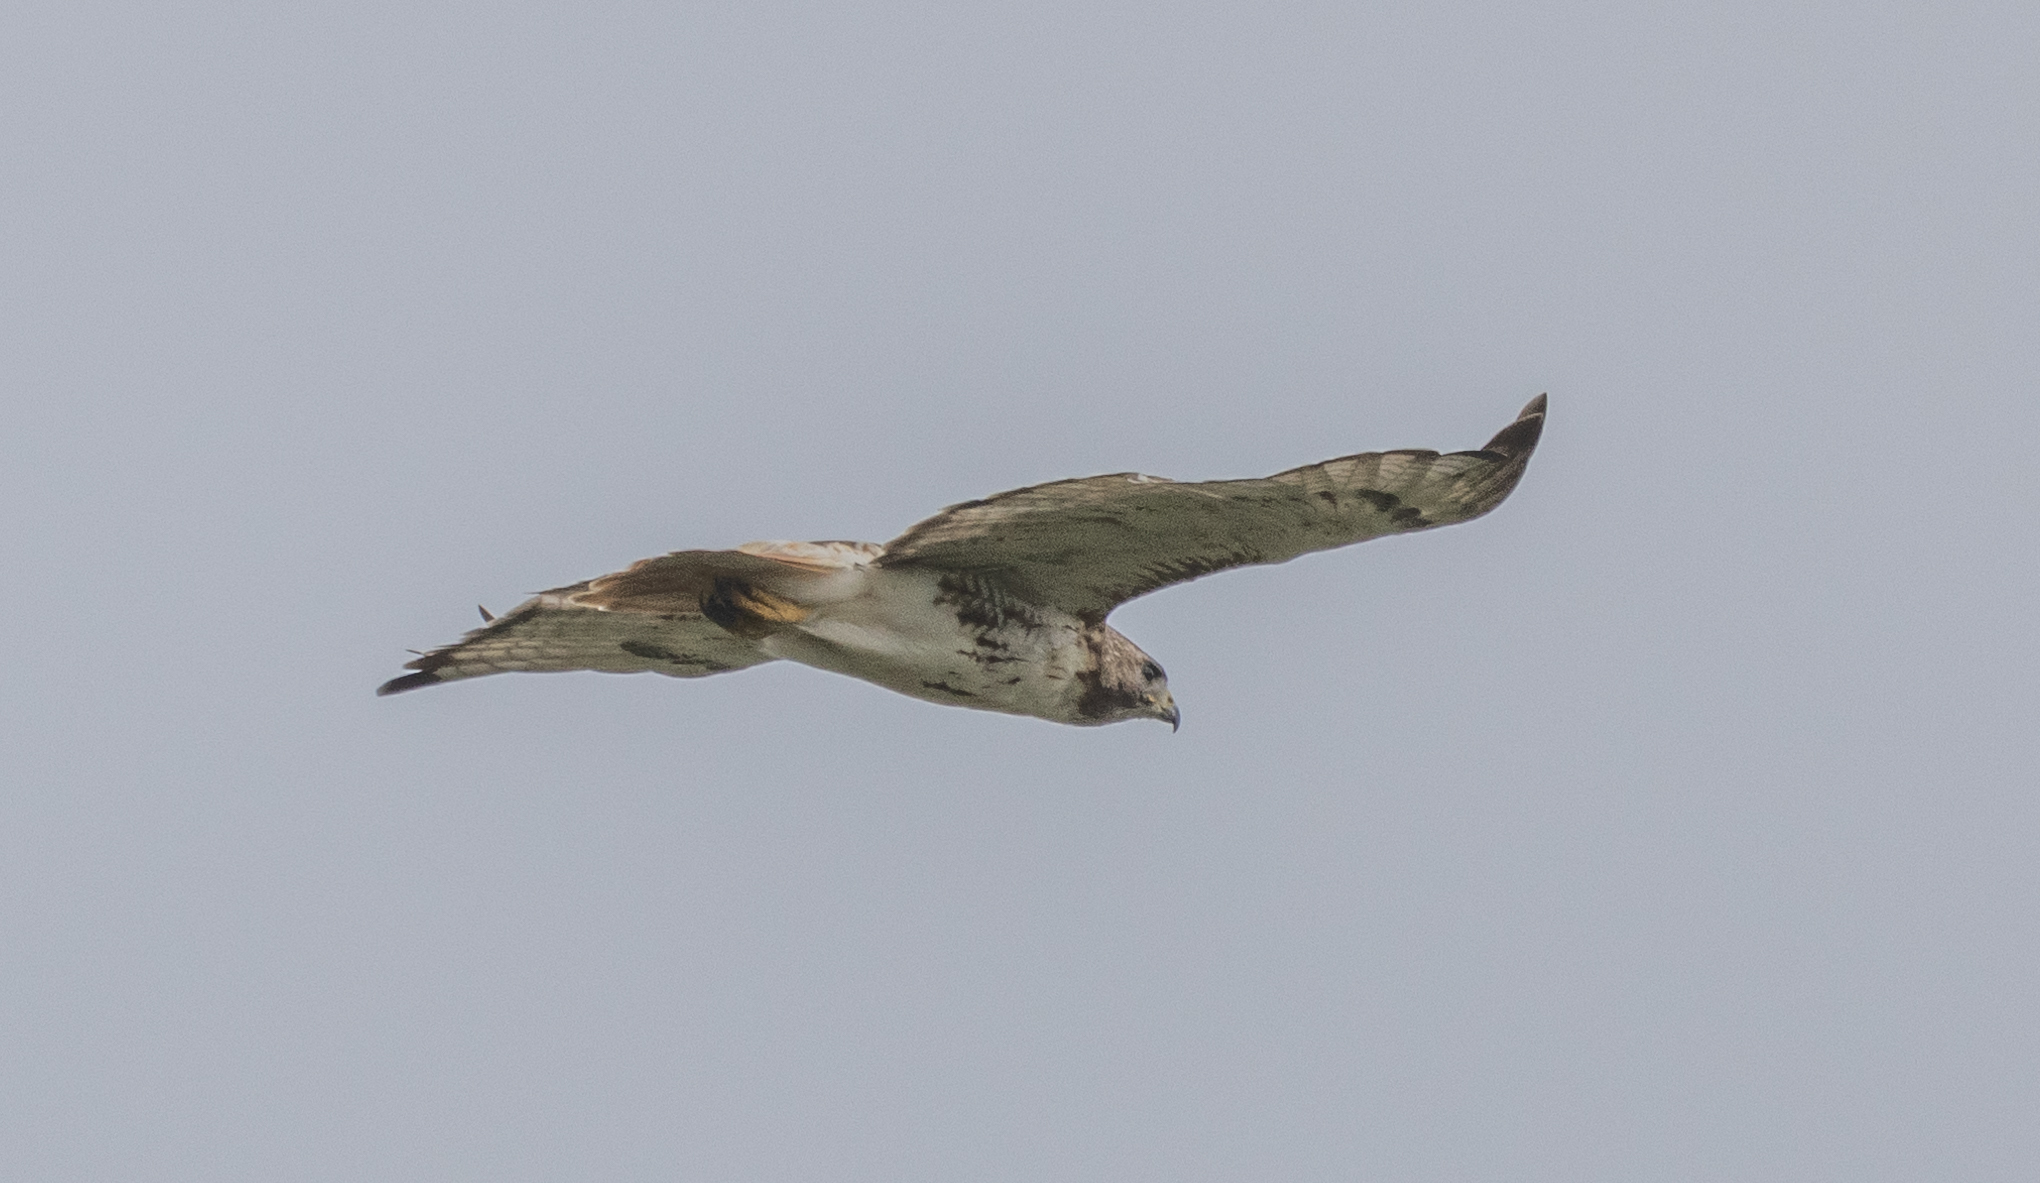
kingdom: Animalia
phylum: Chordata
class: Aves
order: Accipitriformes
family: Accipitridae
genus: Buteo
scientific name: Buteo jamaicensis
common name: Red-tailed hawk
